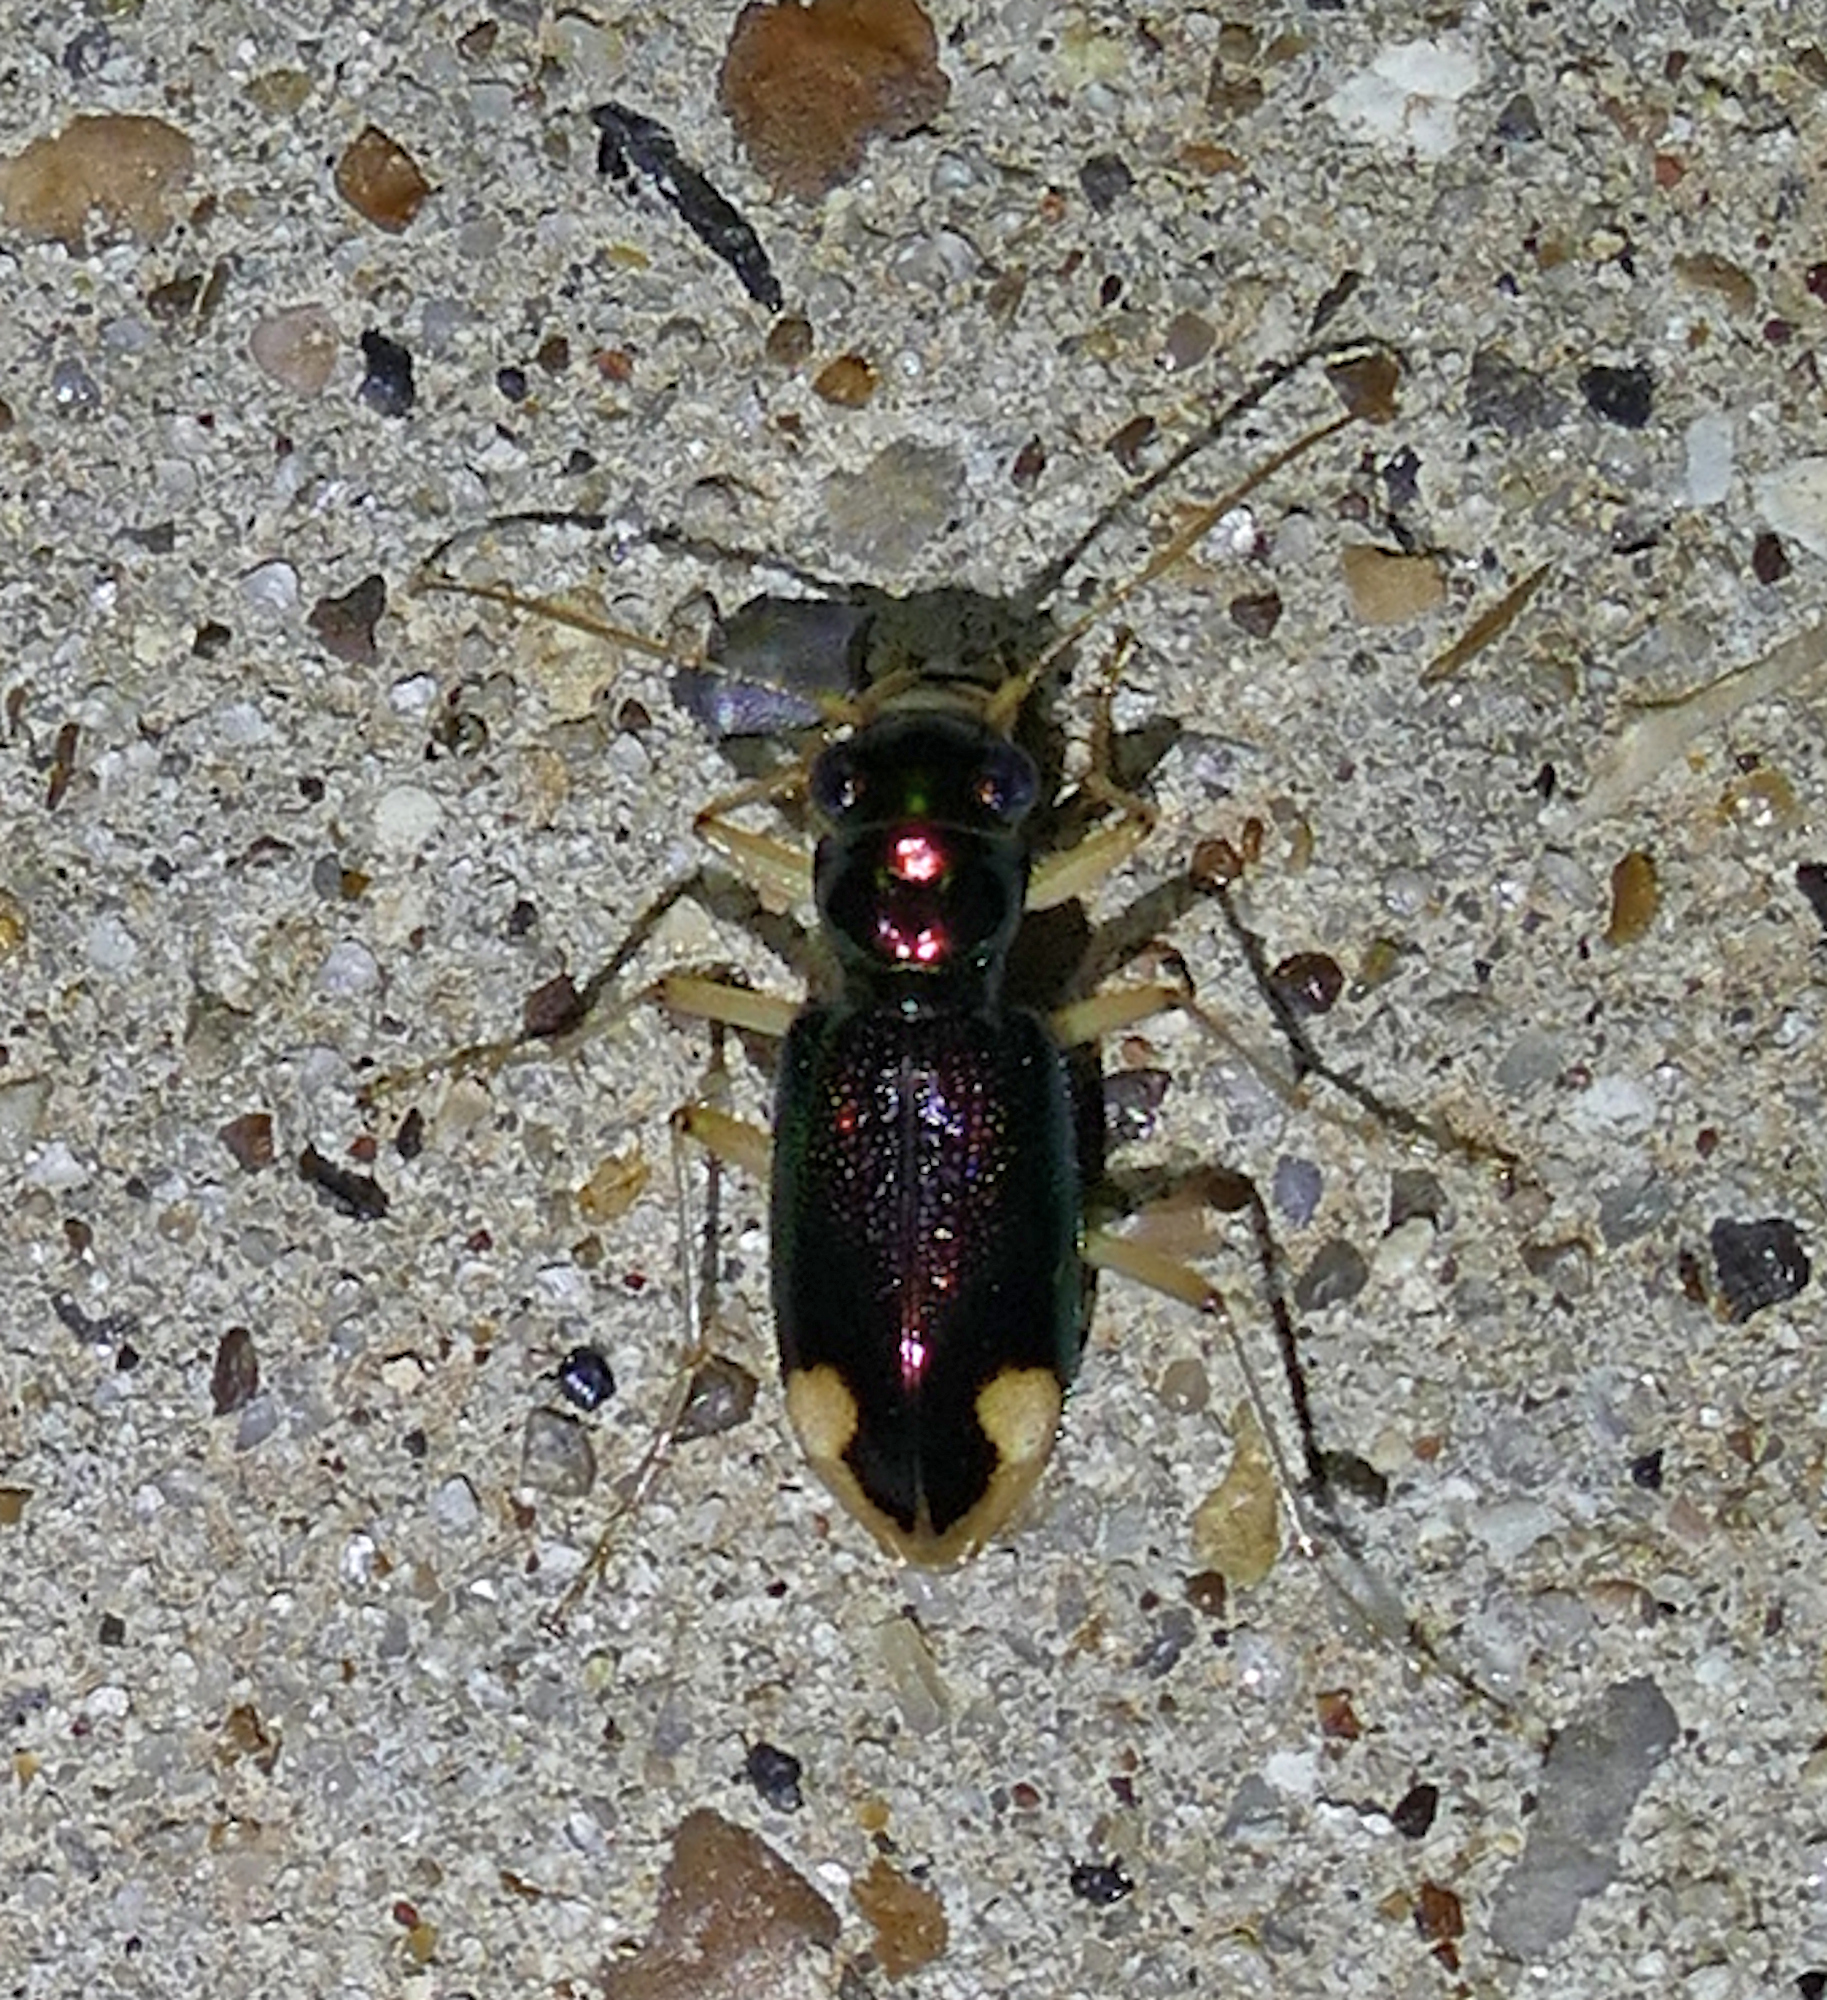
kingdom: Animalia
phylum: Arthropoda
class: Insecta
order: Coleoptera
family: Carabidae
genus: Tetracha
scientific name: Tetracha carolina
